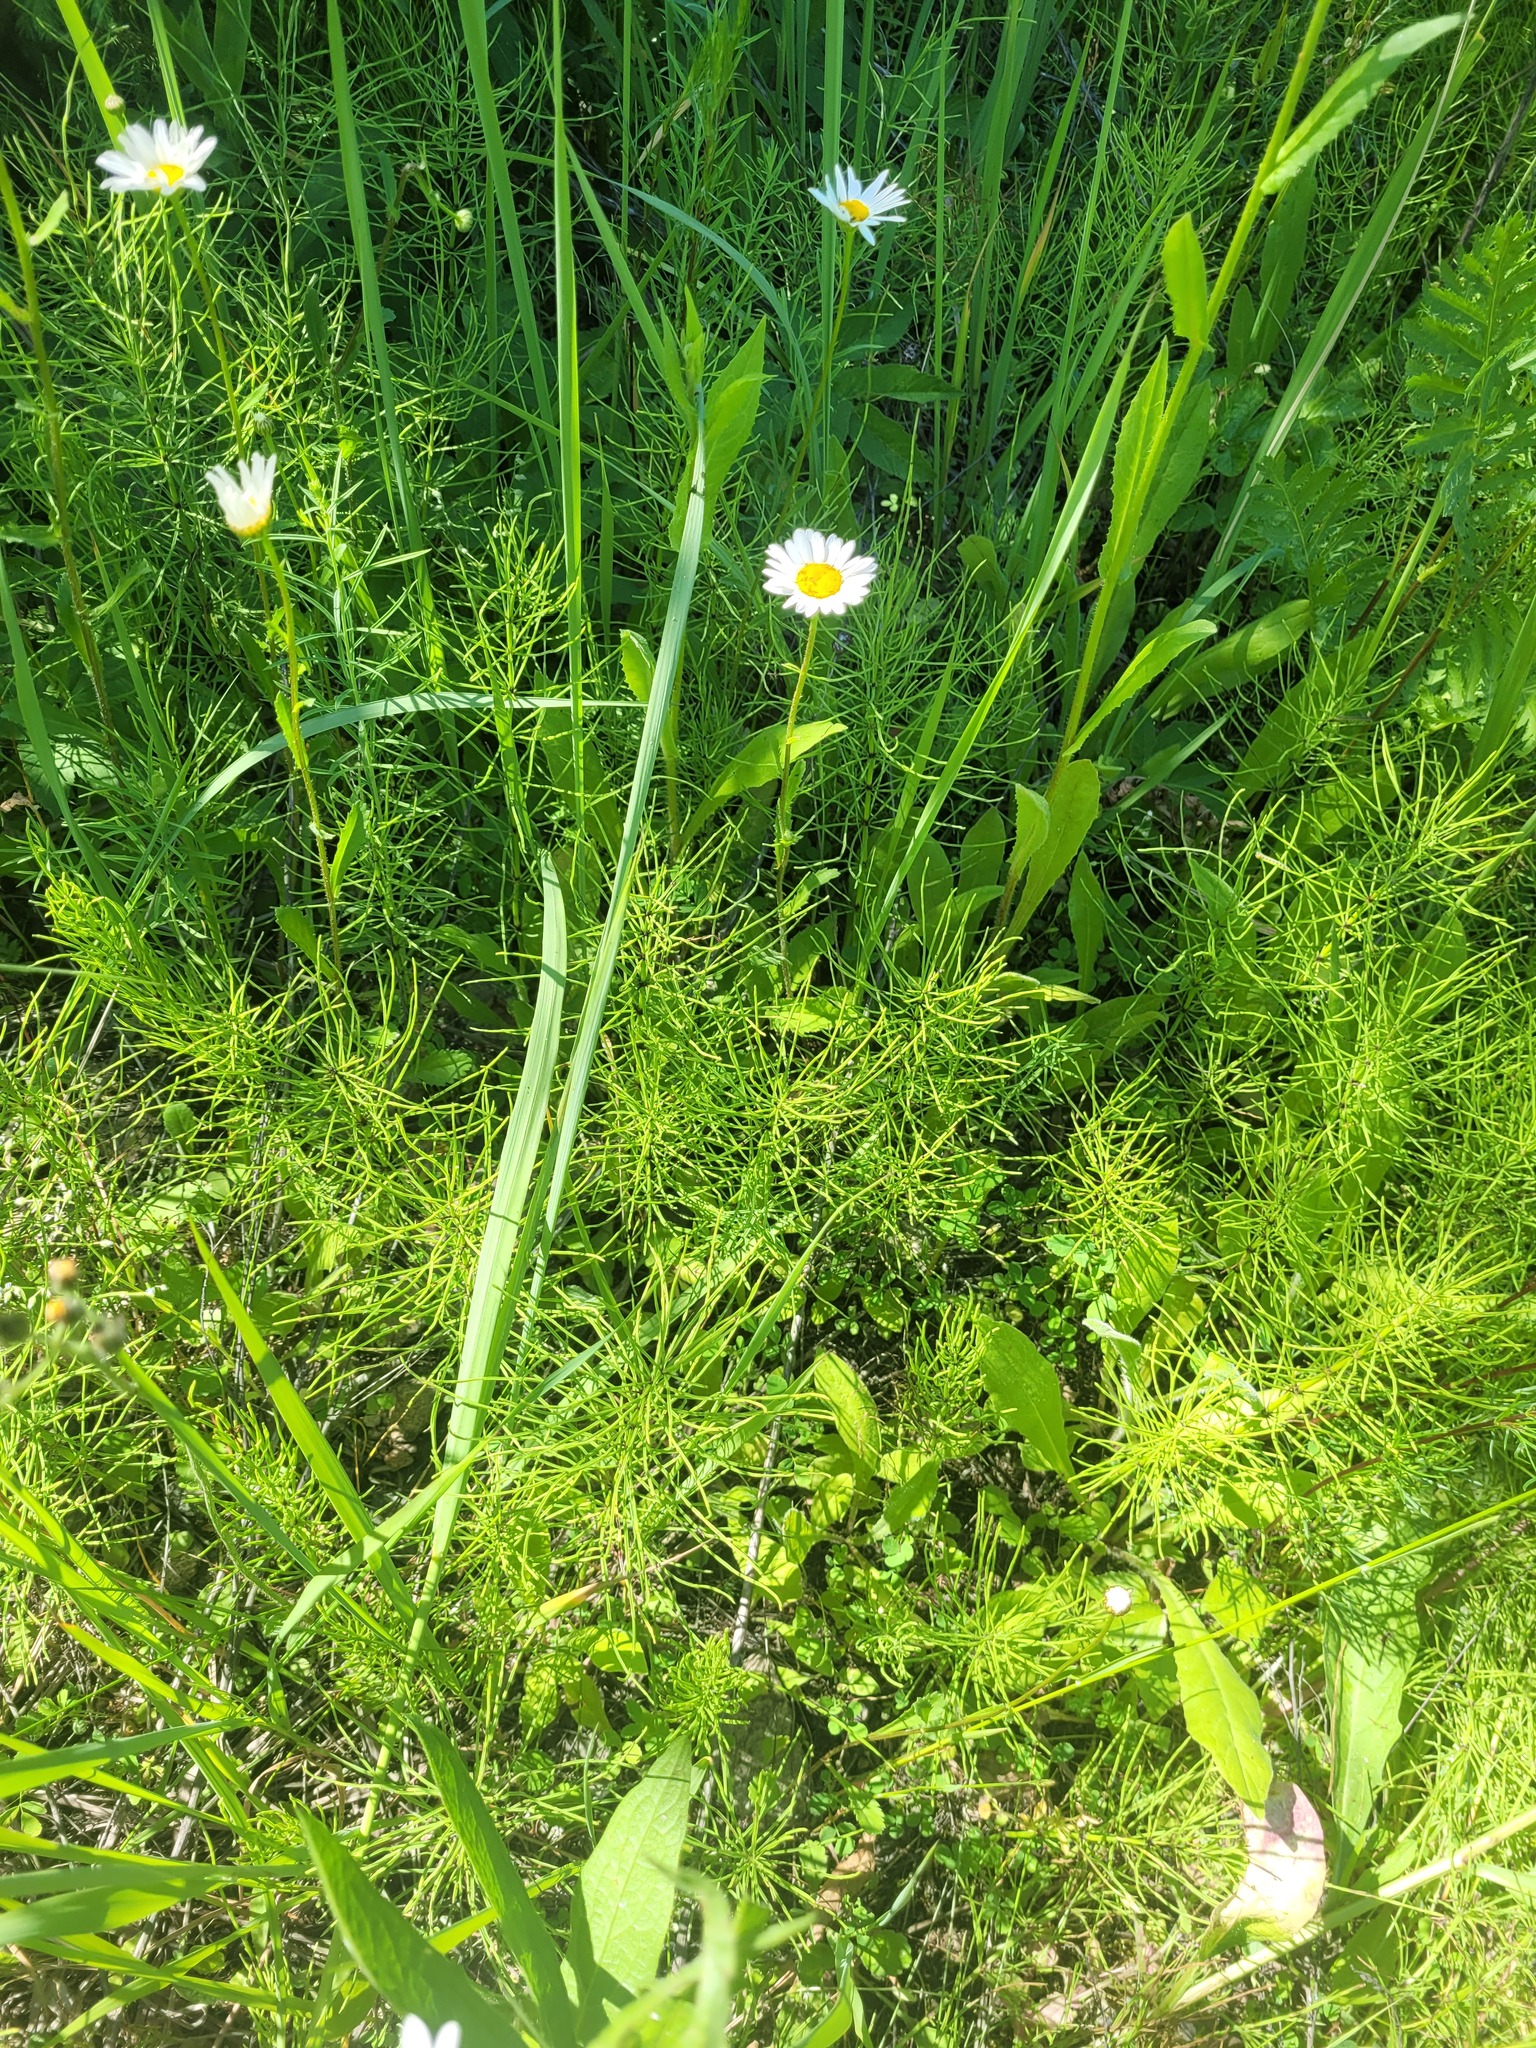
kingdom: Plantae
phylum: Tracheophyta
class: Polypodiopsida
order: Equisetales
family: Equisetaceae
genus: Equisetum
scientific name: Equisetum arvense
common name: Field horsetail
